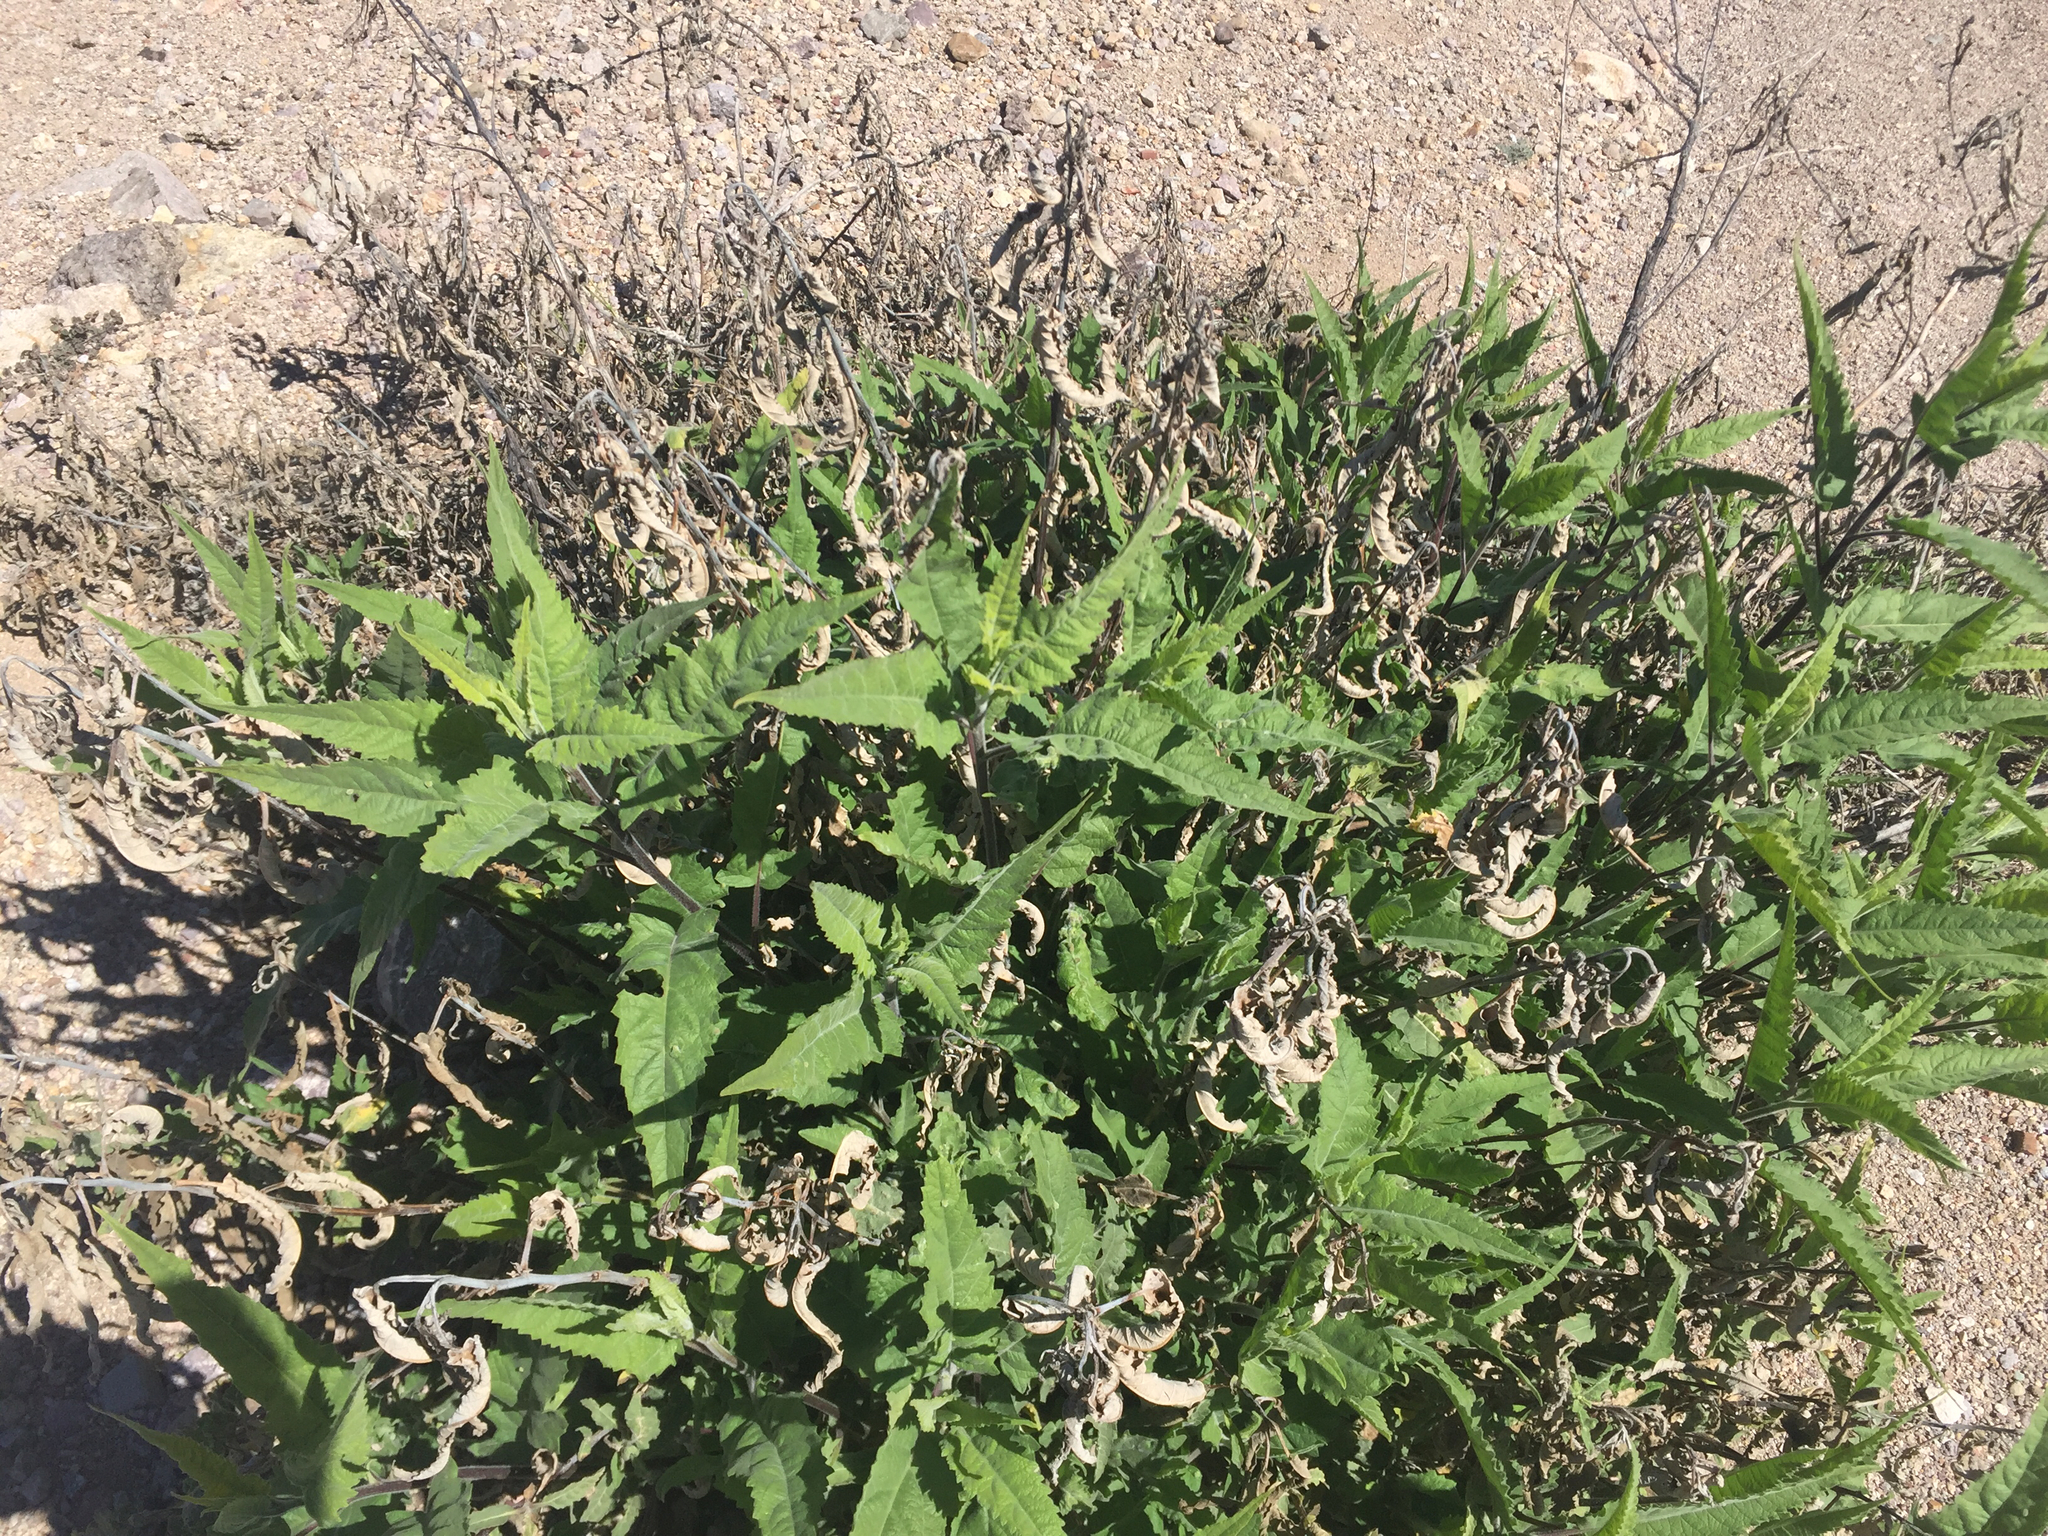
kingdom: Plantae
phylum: Tracheophyta
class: Magnoliopsida
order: Asterales
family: Asteraceae
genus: Ambrosia
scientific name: Ambrosia ambrosioides
